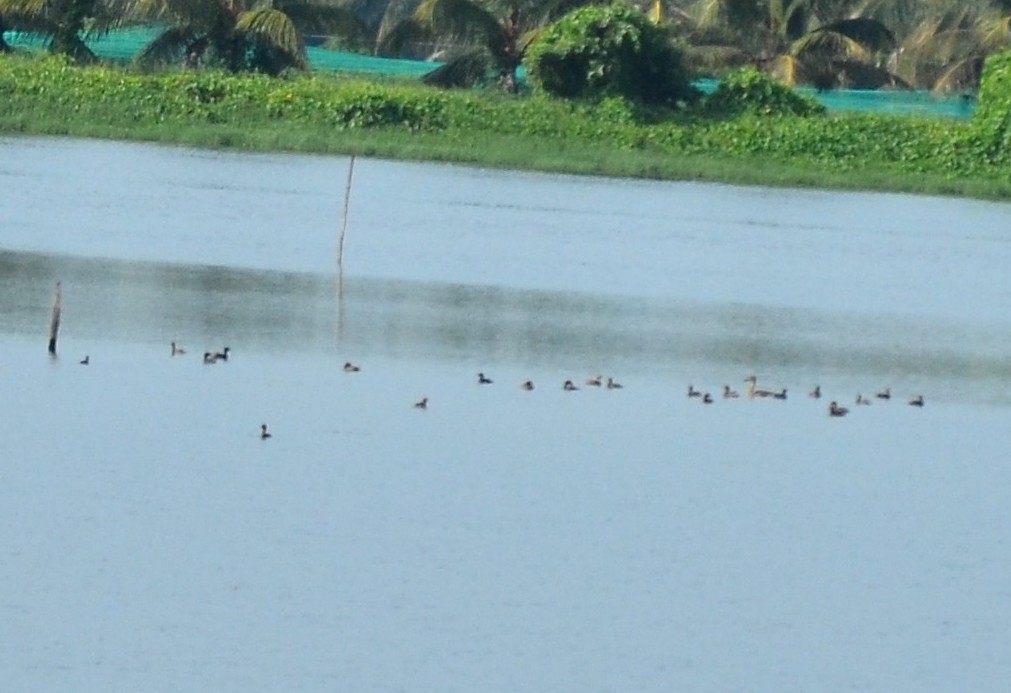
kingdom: Animalia
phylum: Chordata
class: Aves
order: Podicipediformes
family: Podicipedidae
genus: Tachybaptus
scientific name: Tachybaptus ruficollis
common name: Little grebe
